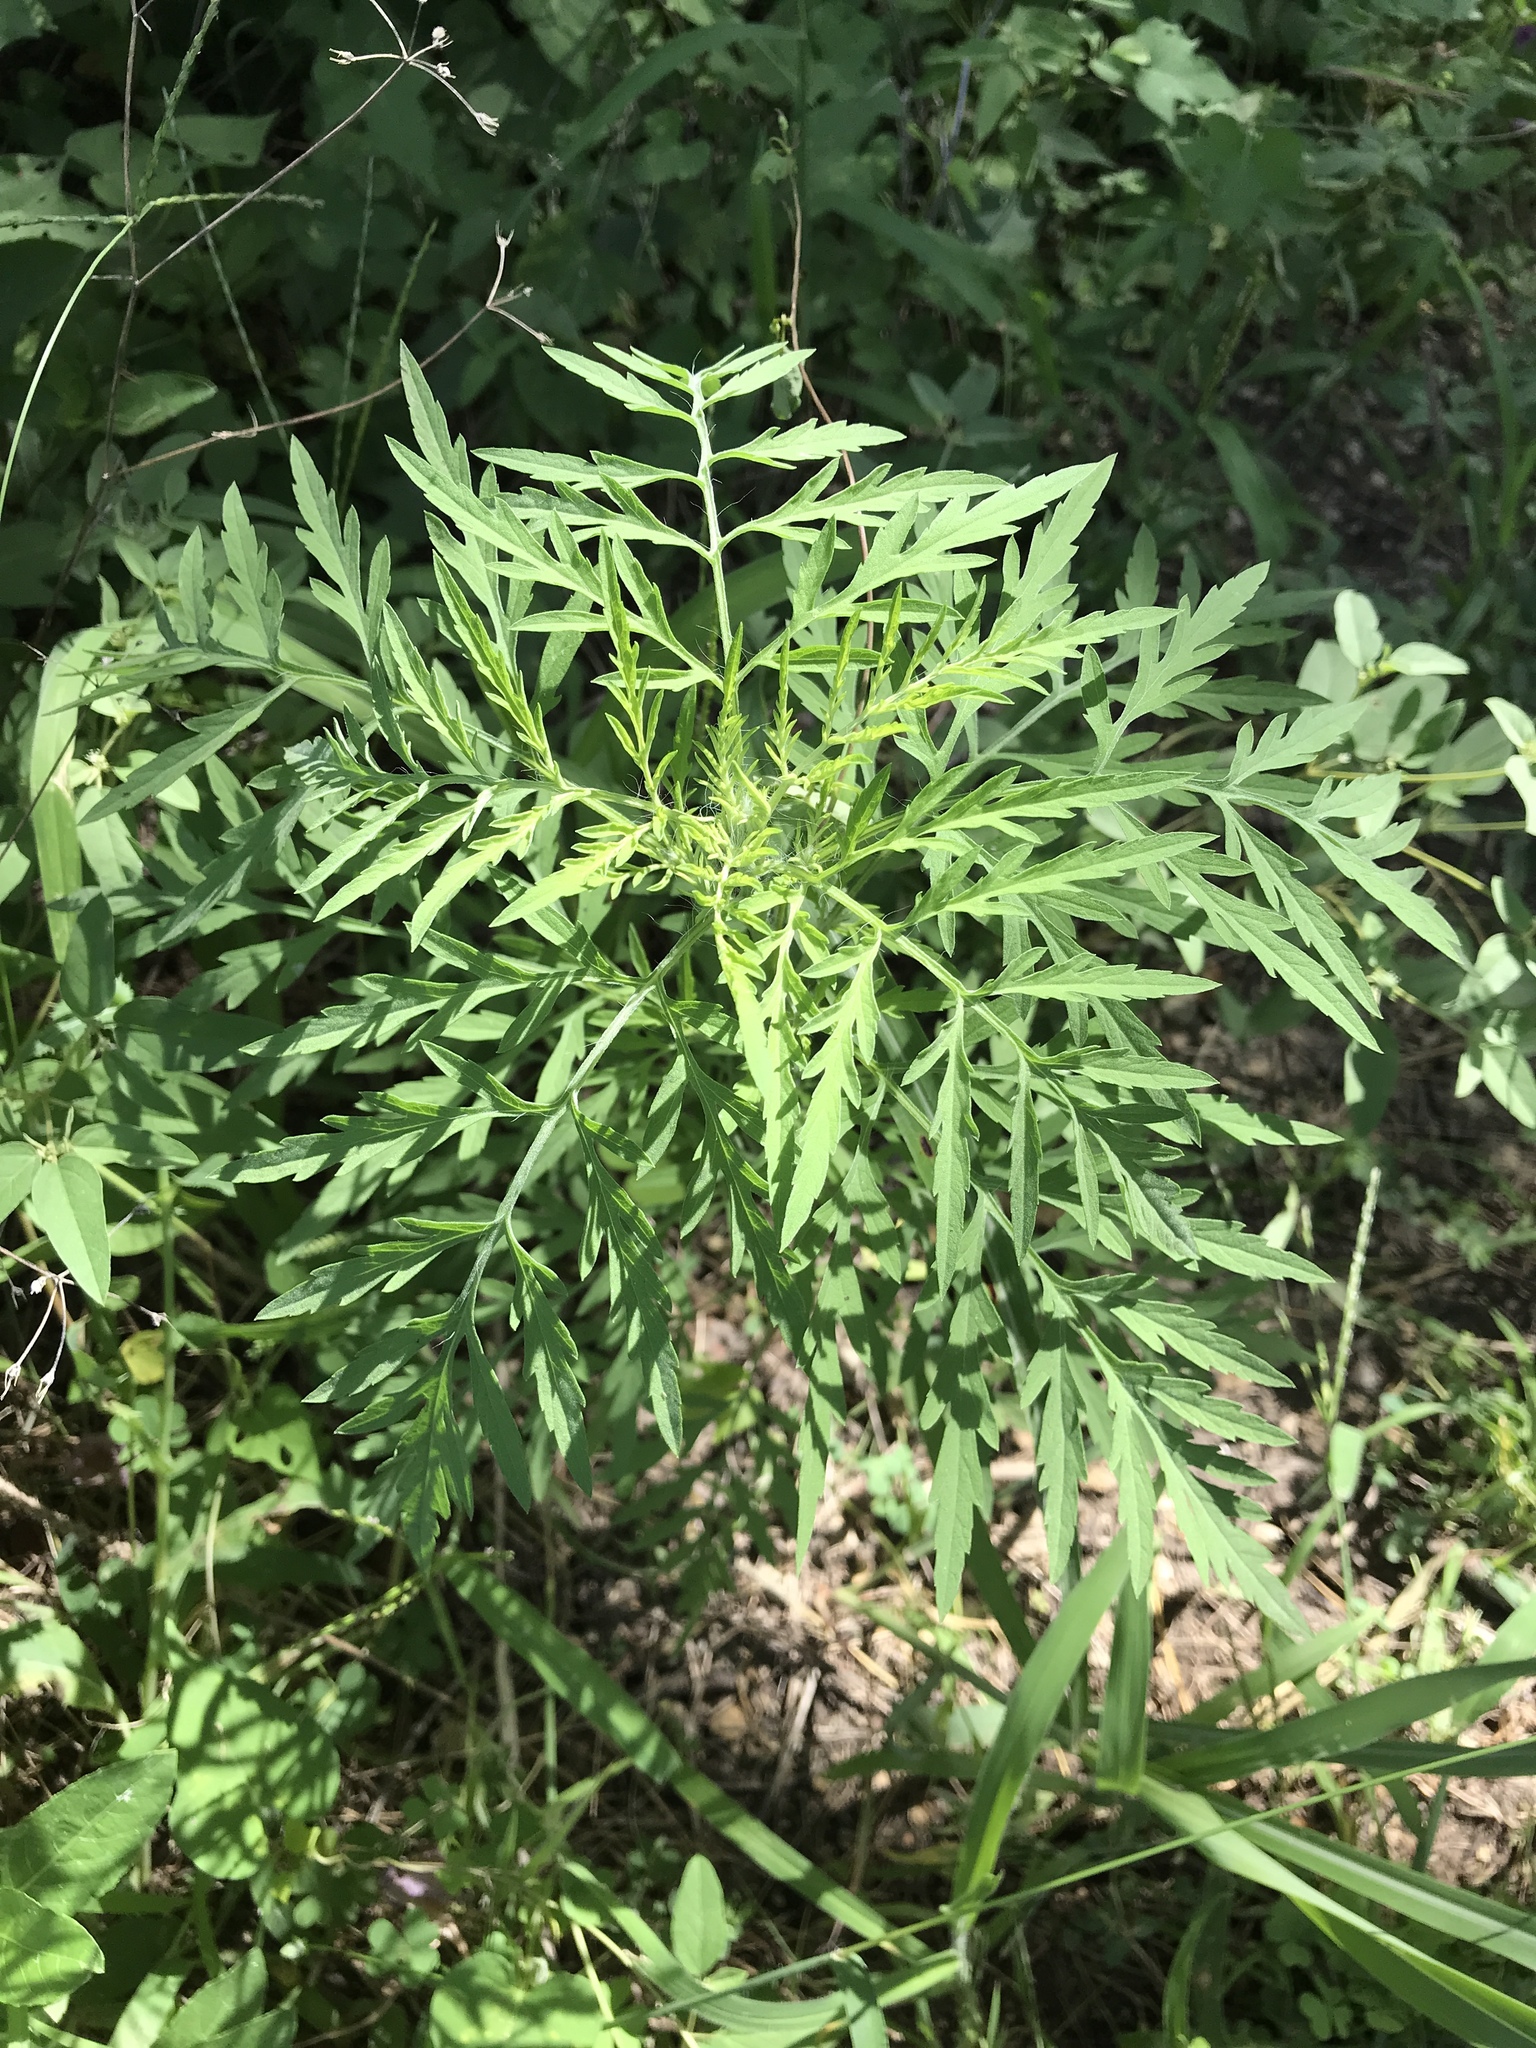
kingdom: Plantae
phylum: Tracheophyta
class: Magnoliopsida
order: Asterales
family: Asteraceae
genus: Ambrosia
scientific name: Ambrosia artemisiifolia
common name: Annual ragweed
